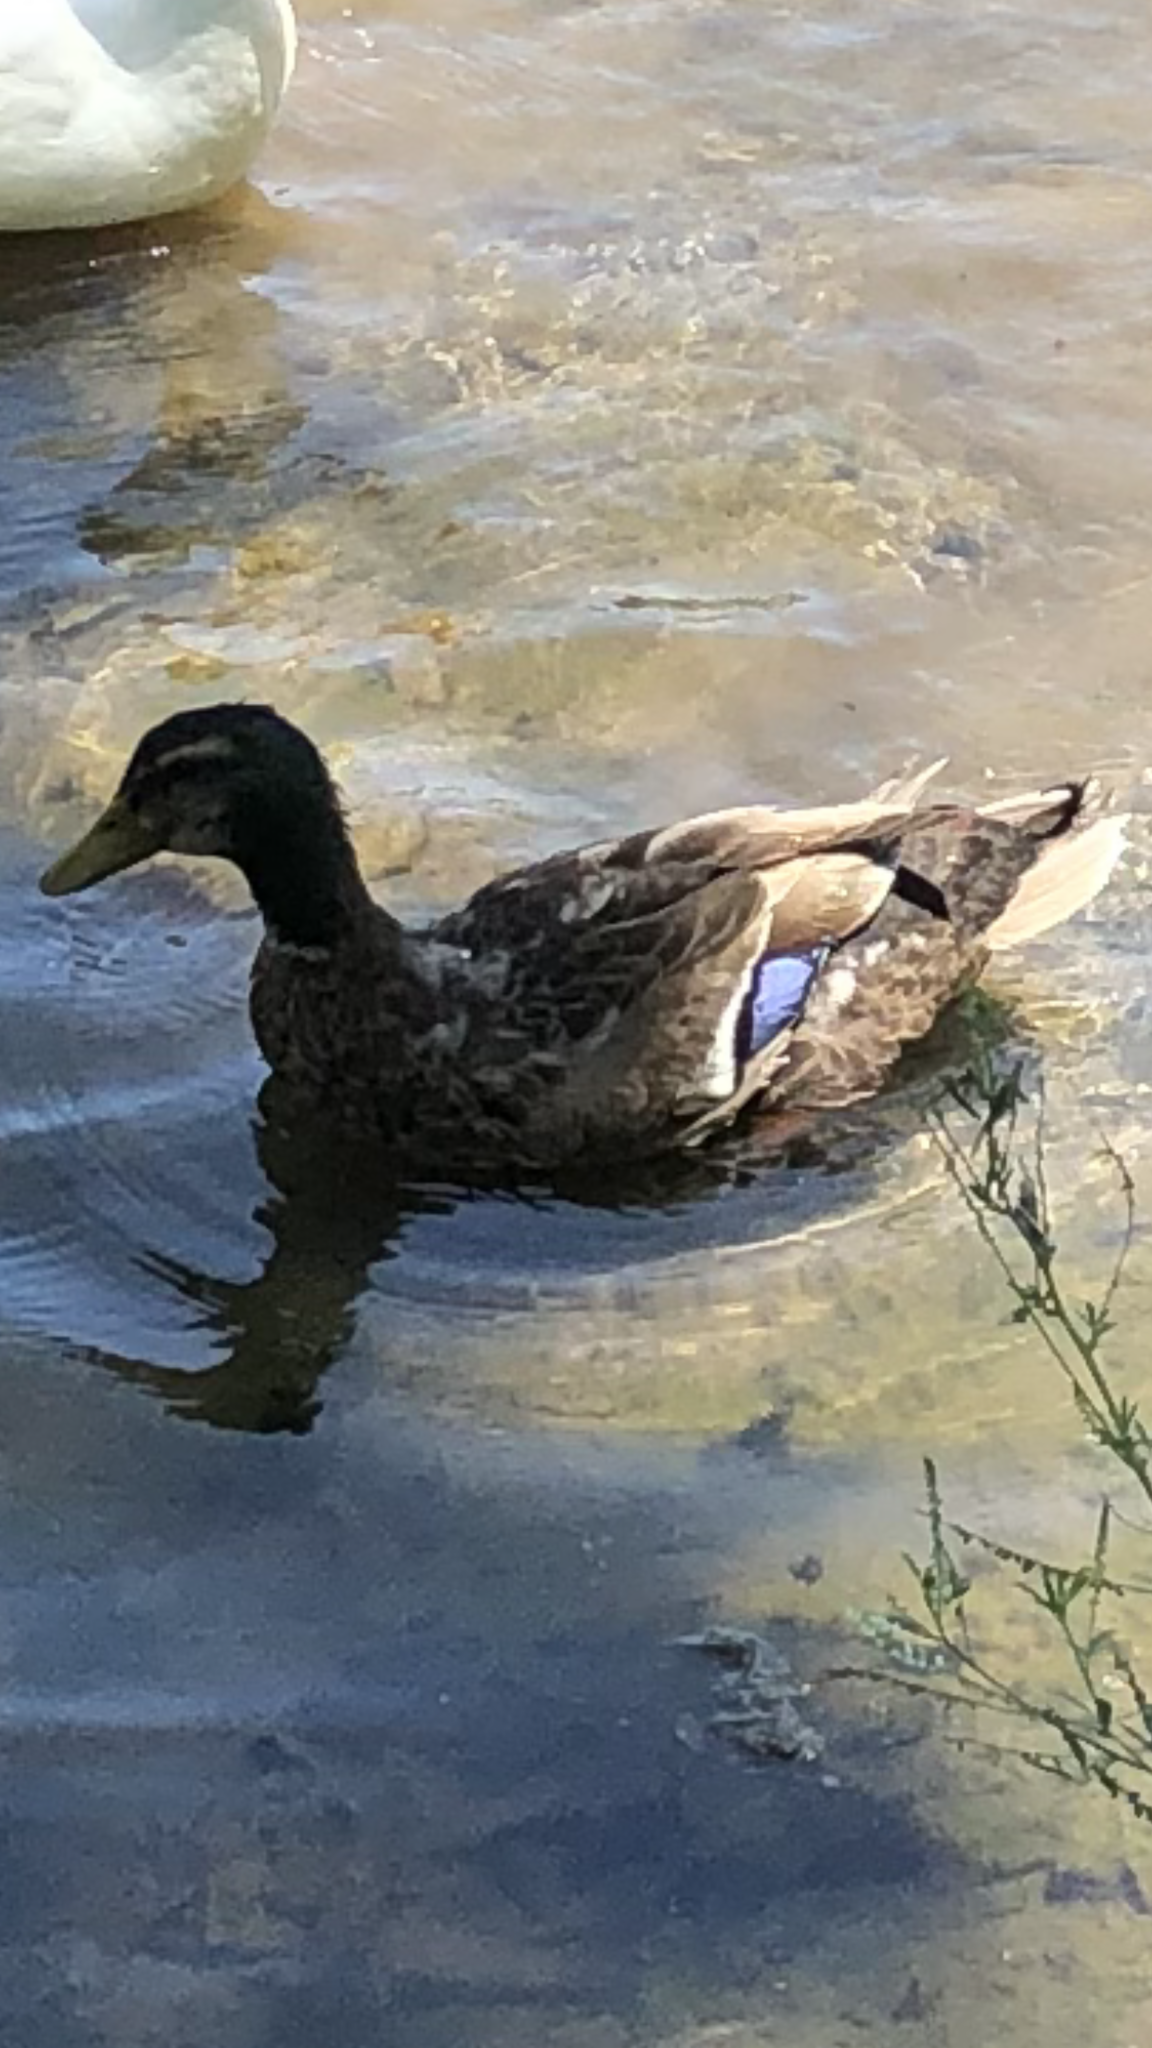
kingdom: Animalia
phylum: Chordata
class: Aves
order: Anseriformes
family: Anatidae
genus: Anas
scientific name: Anas platyrhynchos
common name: Mallard
